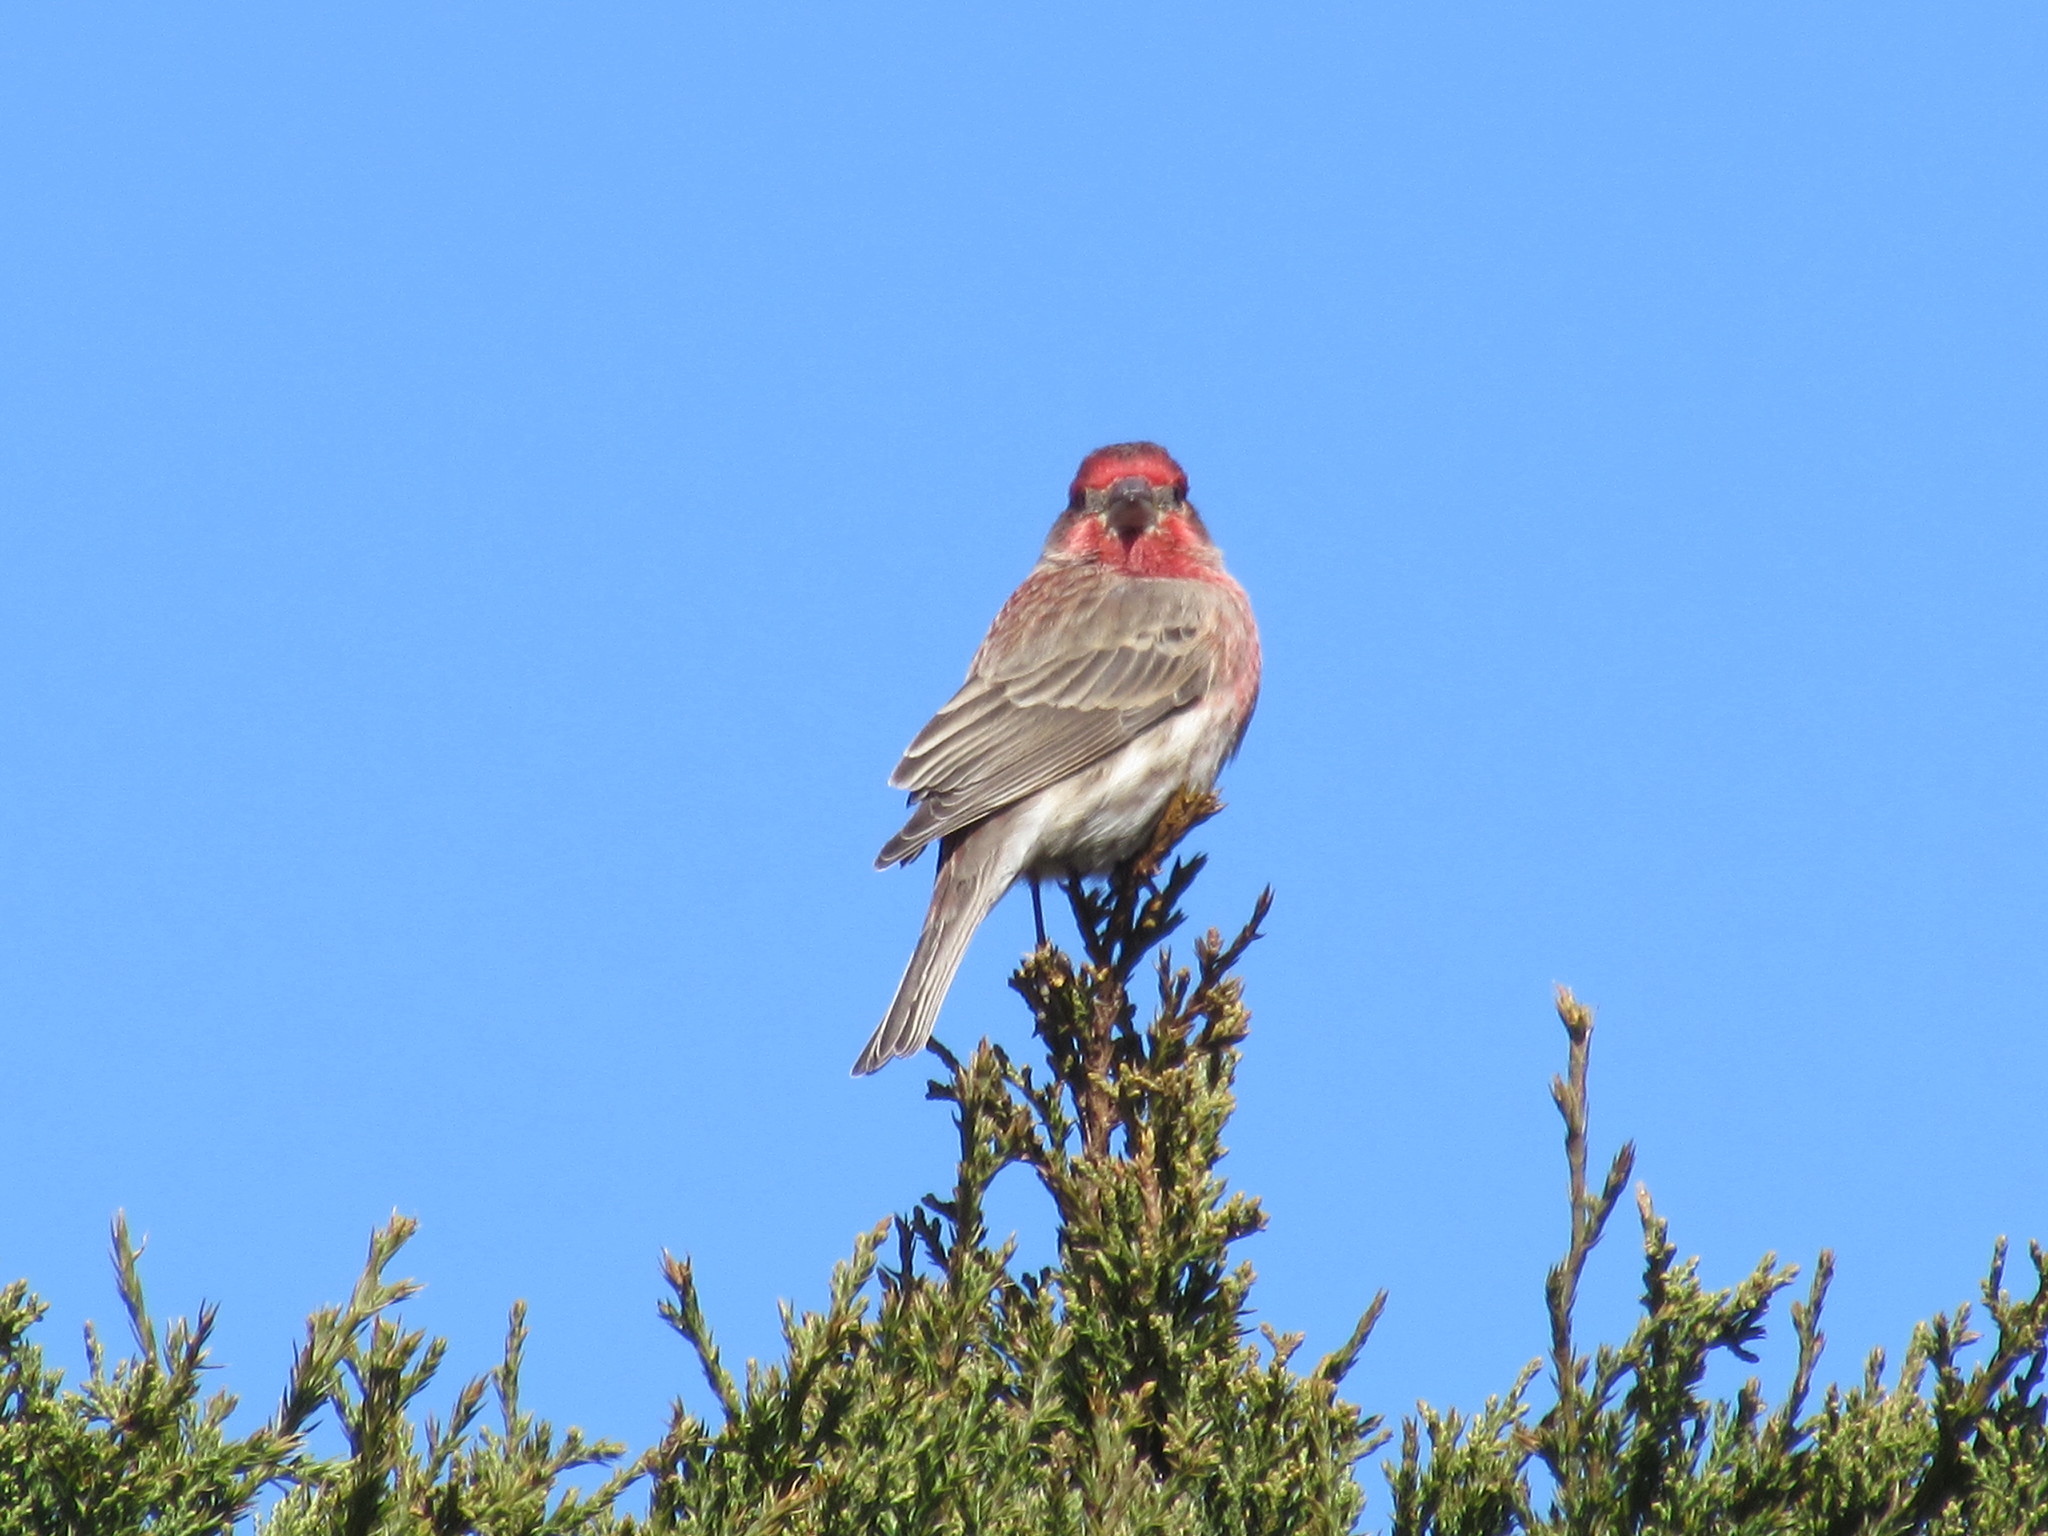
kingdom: Animalia
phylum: Chordata
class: Aves
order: Passeriformes
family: Fringillidae
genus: Haemorhous
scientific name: Haemorhous mexicanus
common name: House finch
